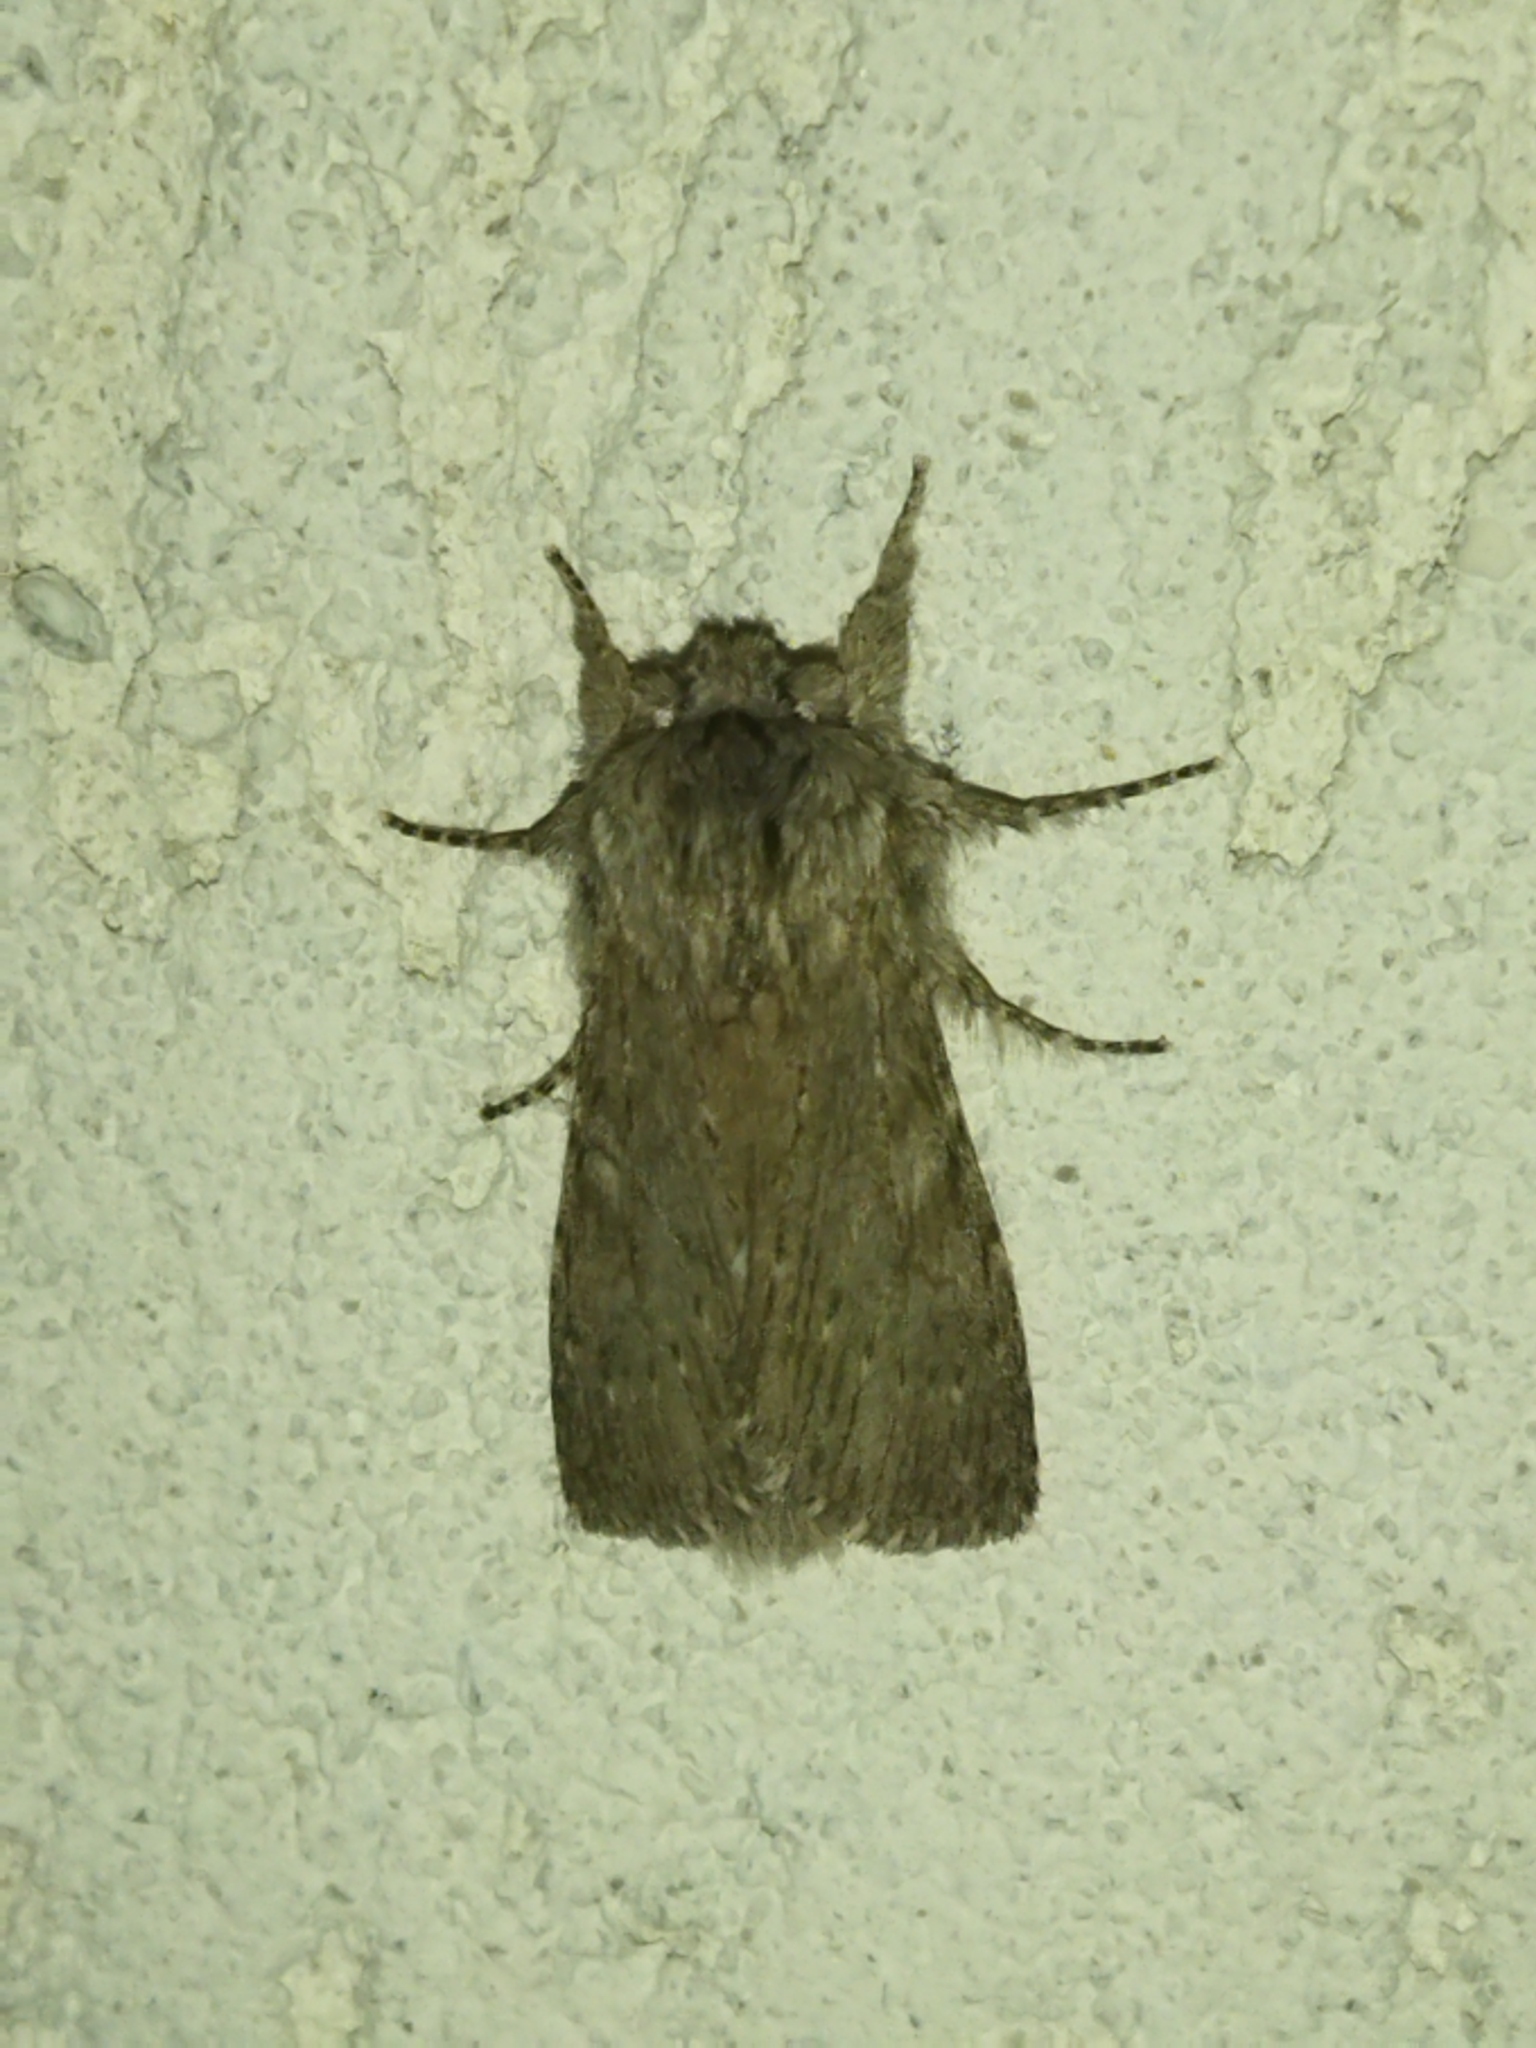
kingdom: Animalia
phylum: Arthropoda
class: Insecta
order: Lepidoptera
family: Notodontidae
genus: Dicranura
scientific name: Dicranura ulmi
